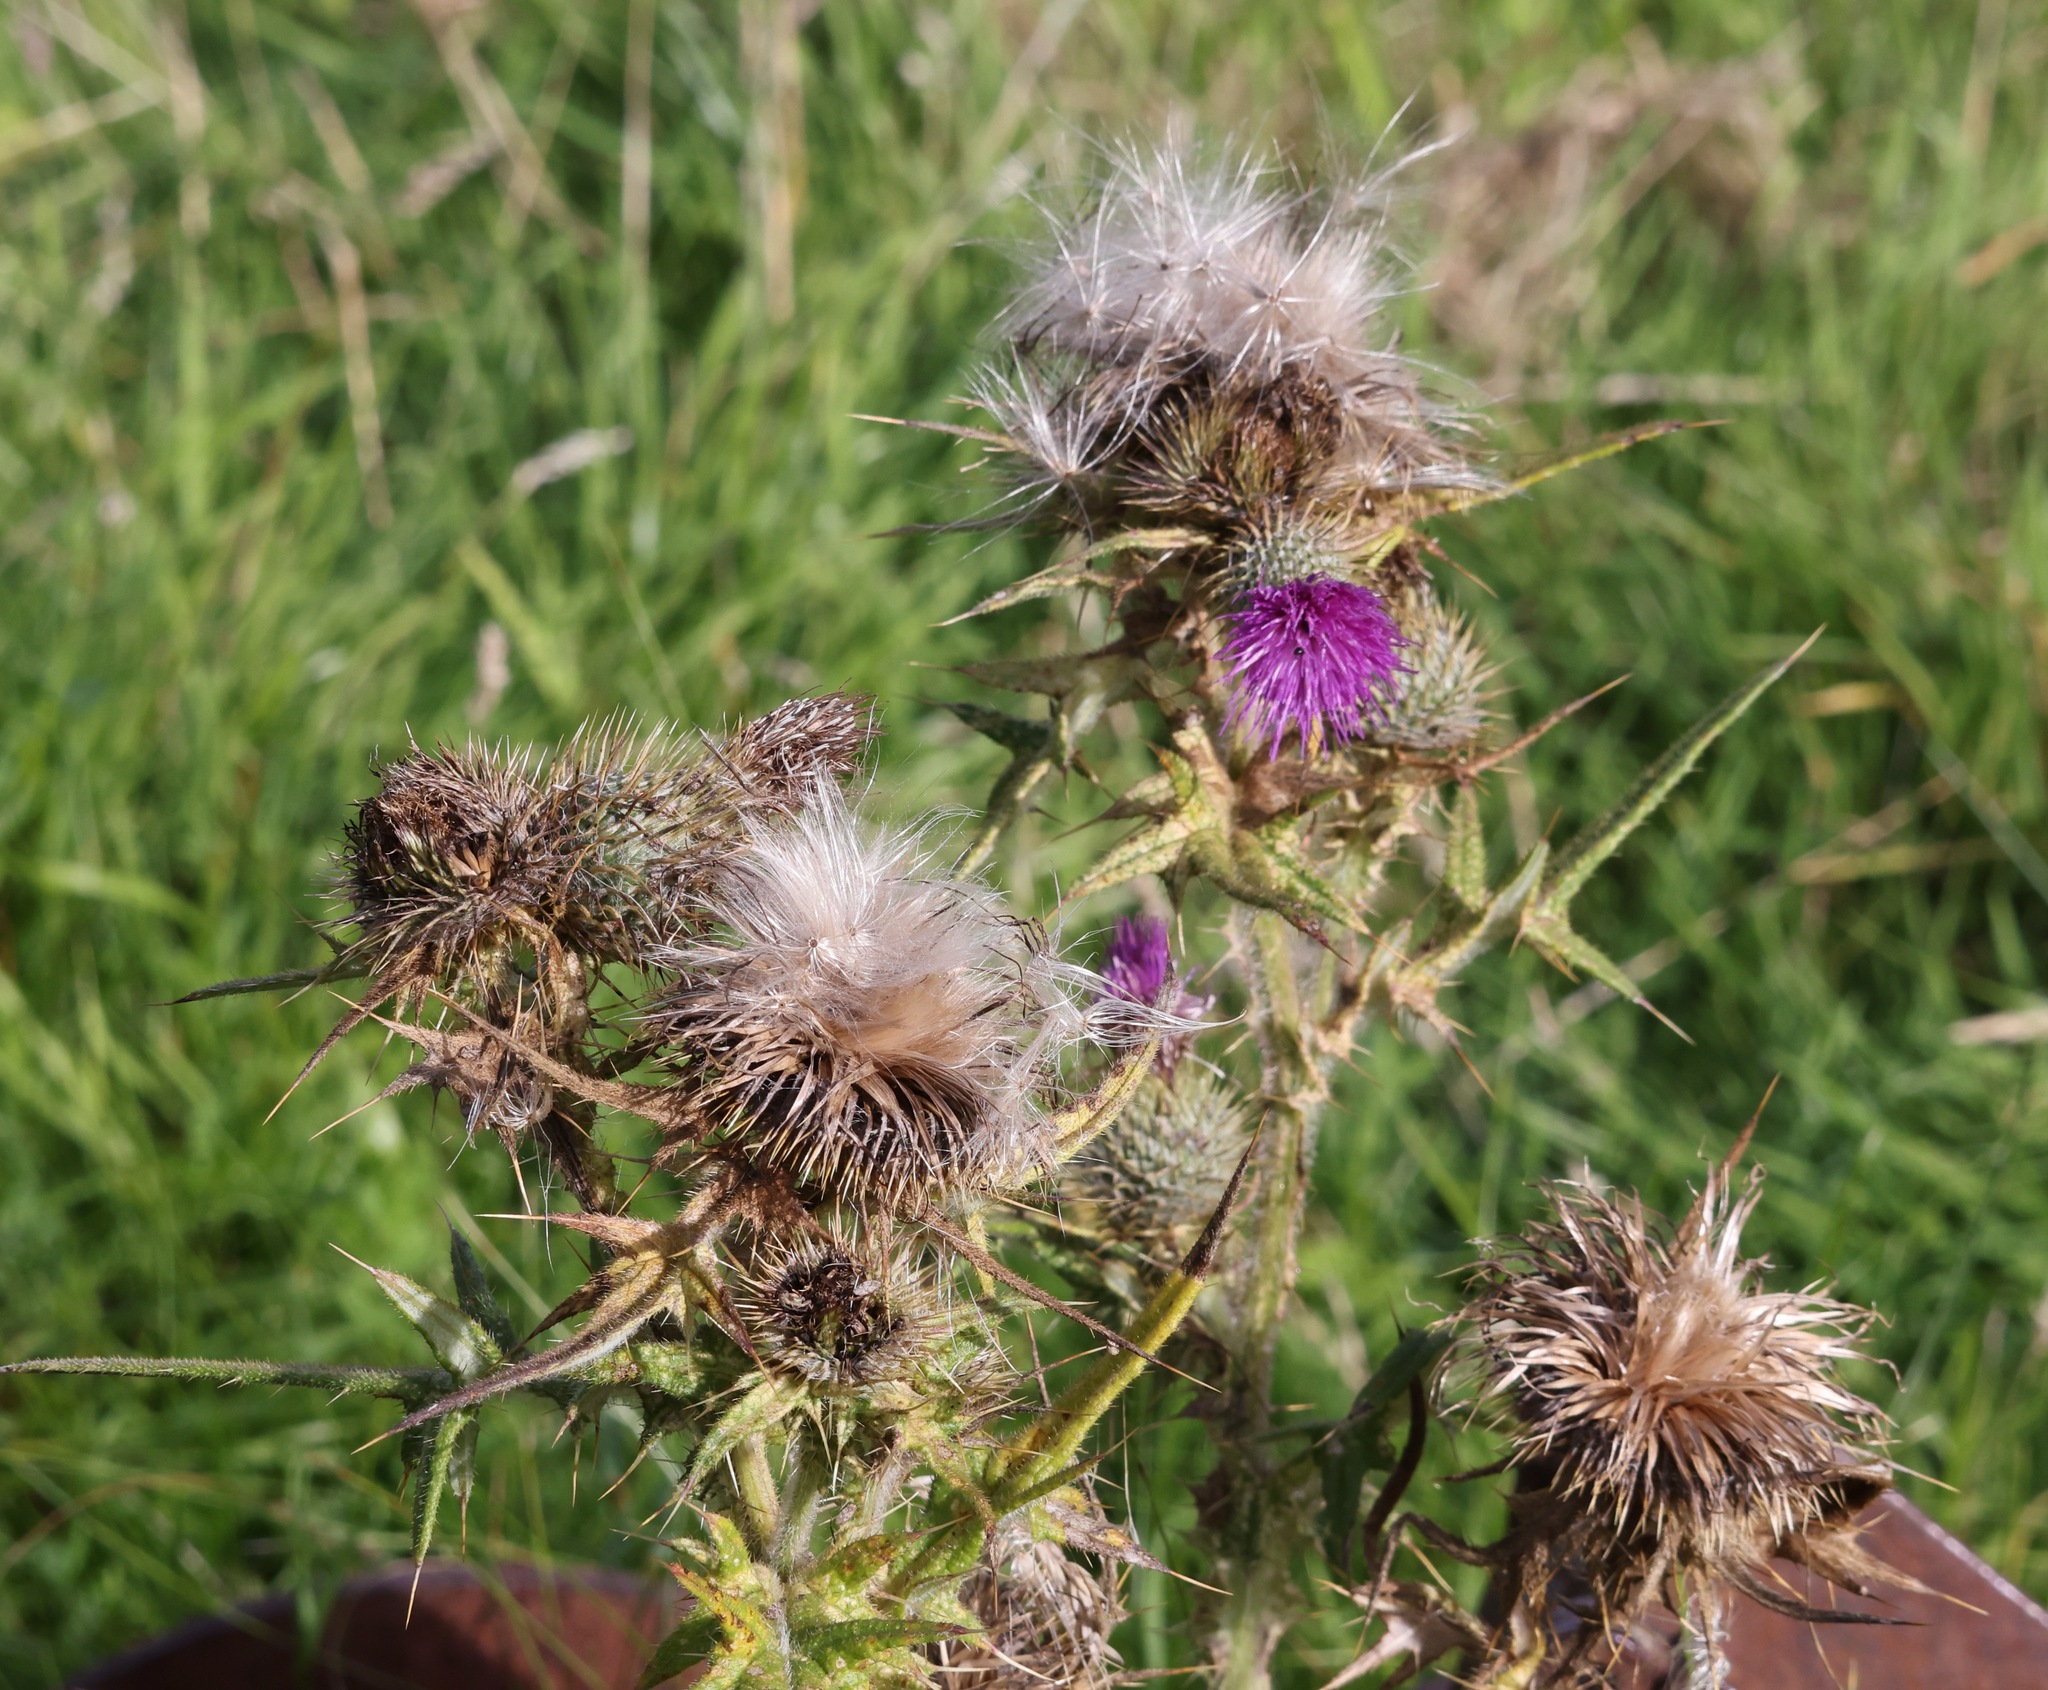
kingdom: Plantae
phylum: Tracheophyta
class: Magnoliopsida
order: Asterales
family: Asteraceae
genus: Cirsium
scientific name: Cirsium vulgare
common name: Bull thistle
